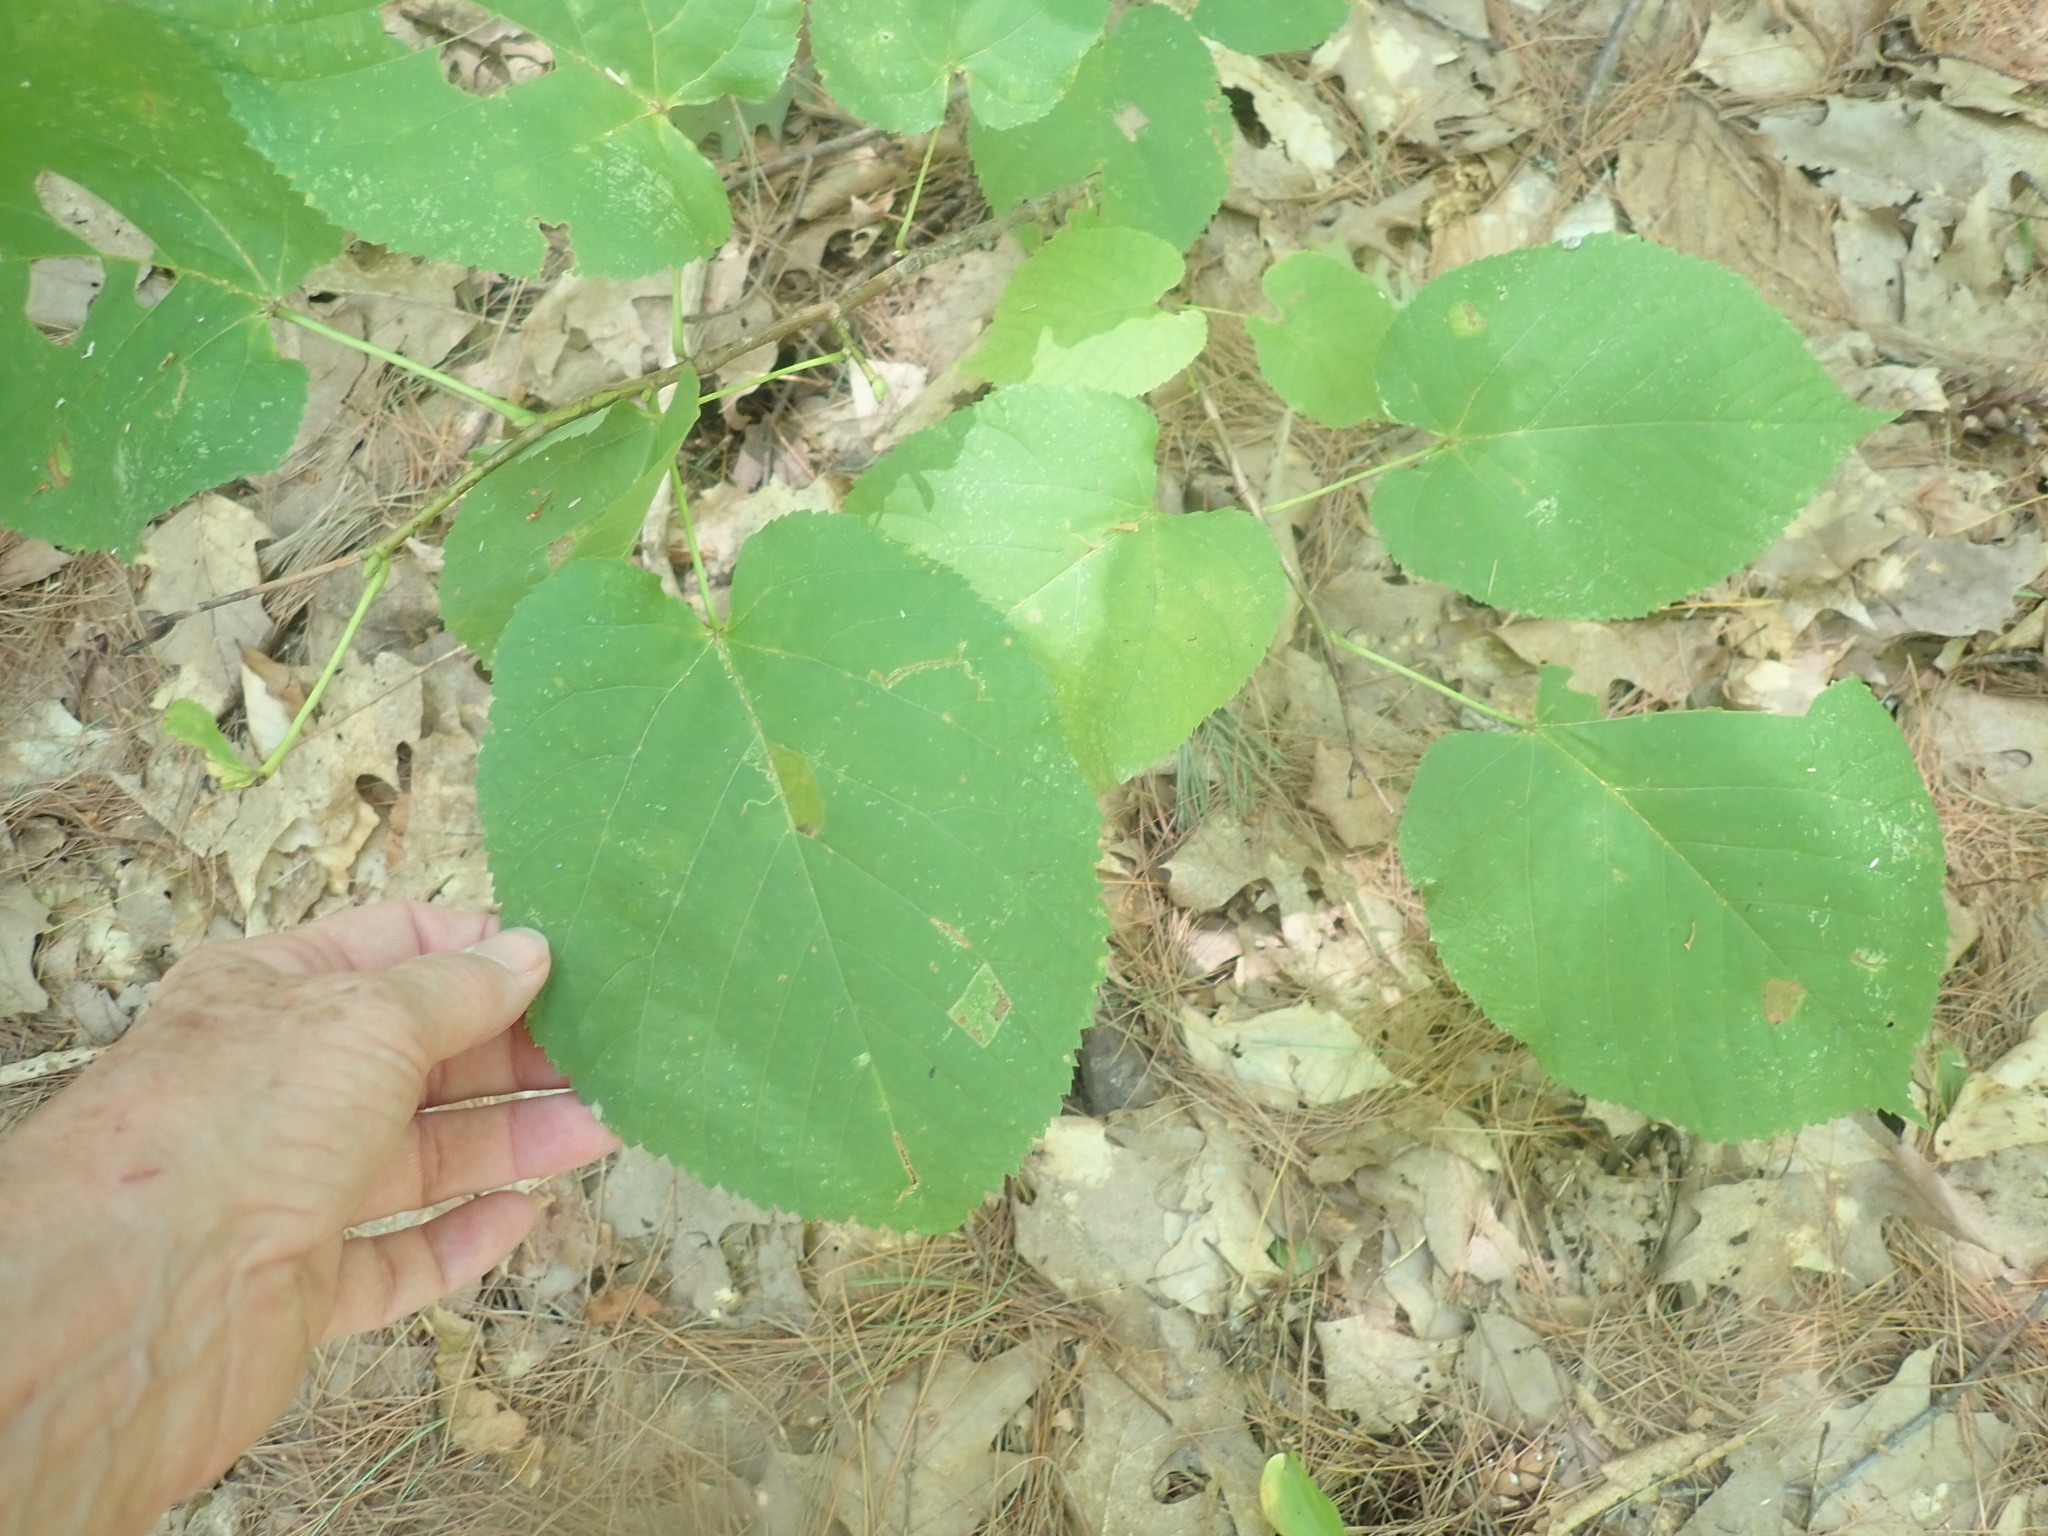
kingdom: Plantae
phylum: Tracheophyta
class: Magnoliopsida
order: Malvales
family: Malvaceae
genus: Tilia
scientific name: Tilia americana
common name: Basswood
